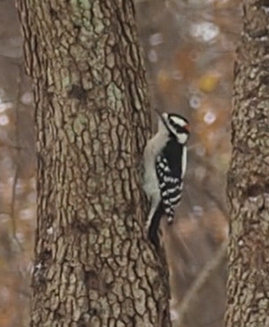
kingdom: Animalia
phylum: Chordata
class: Aves
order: Piciformes
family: Picidae
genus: Dryobates
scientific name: Dryobates pubescens
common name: Downy woodpecker
